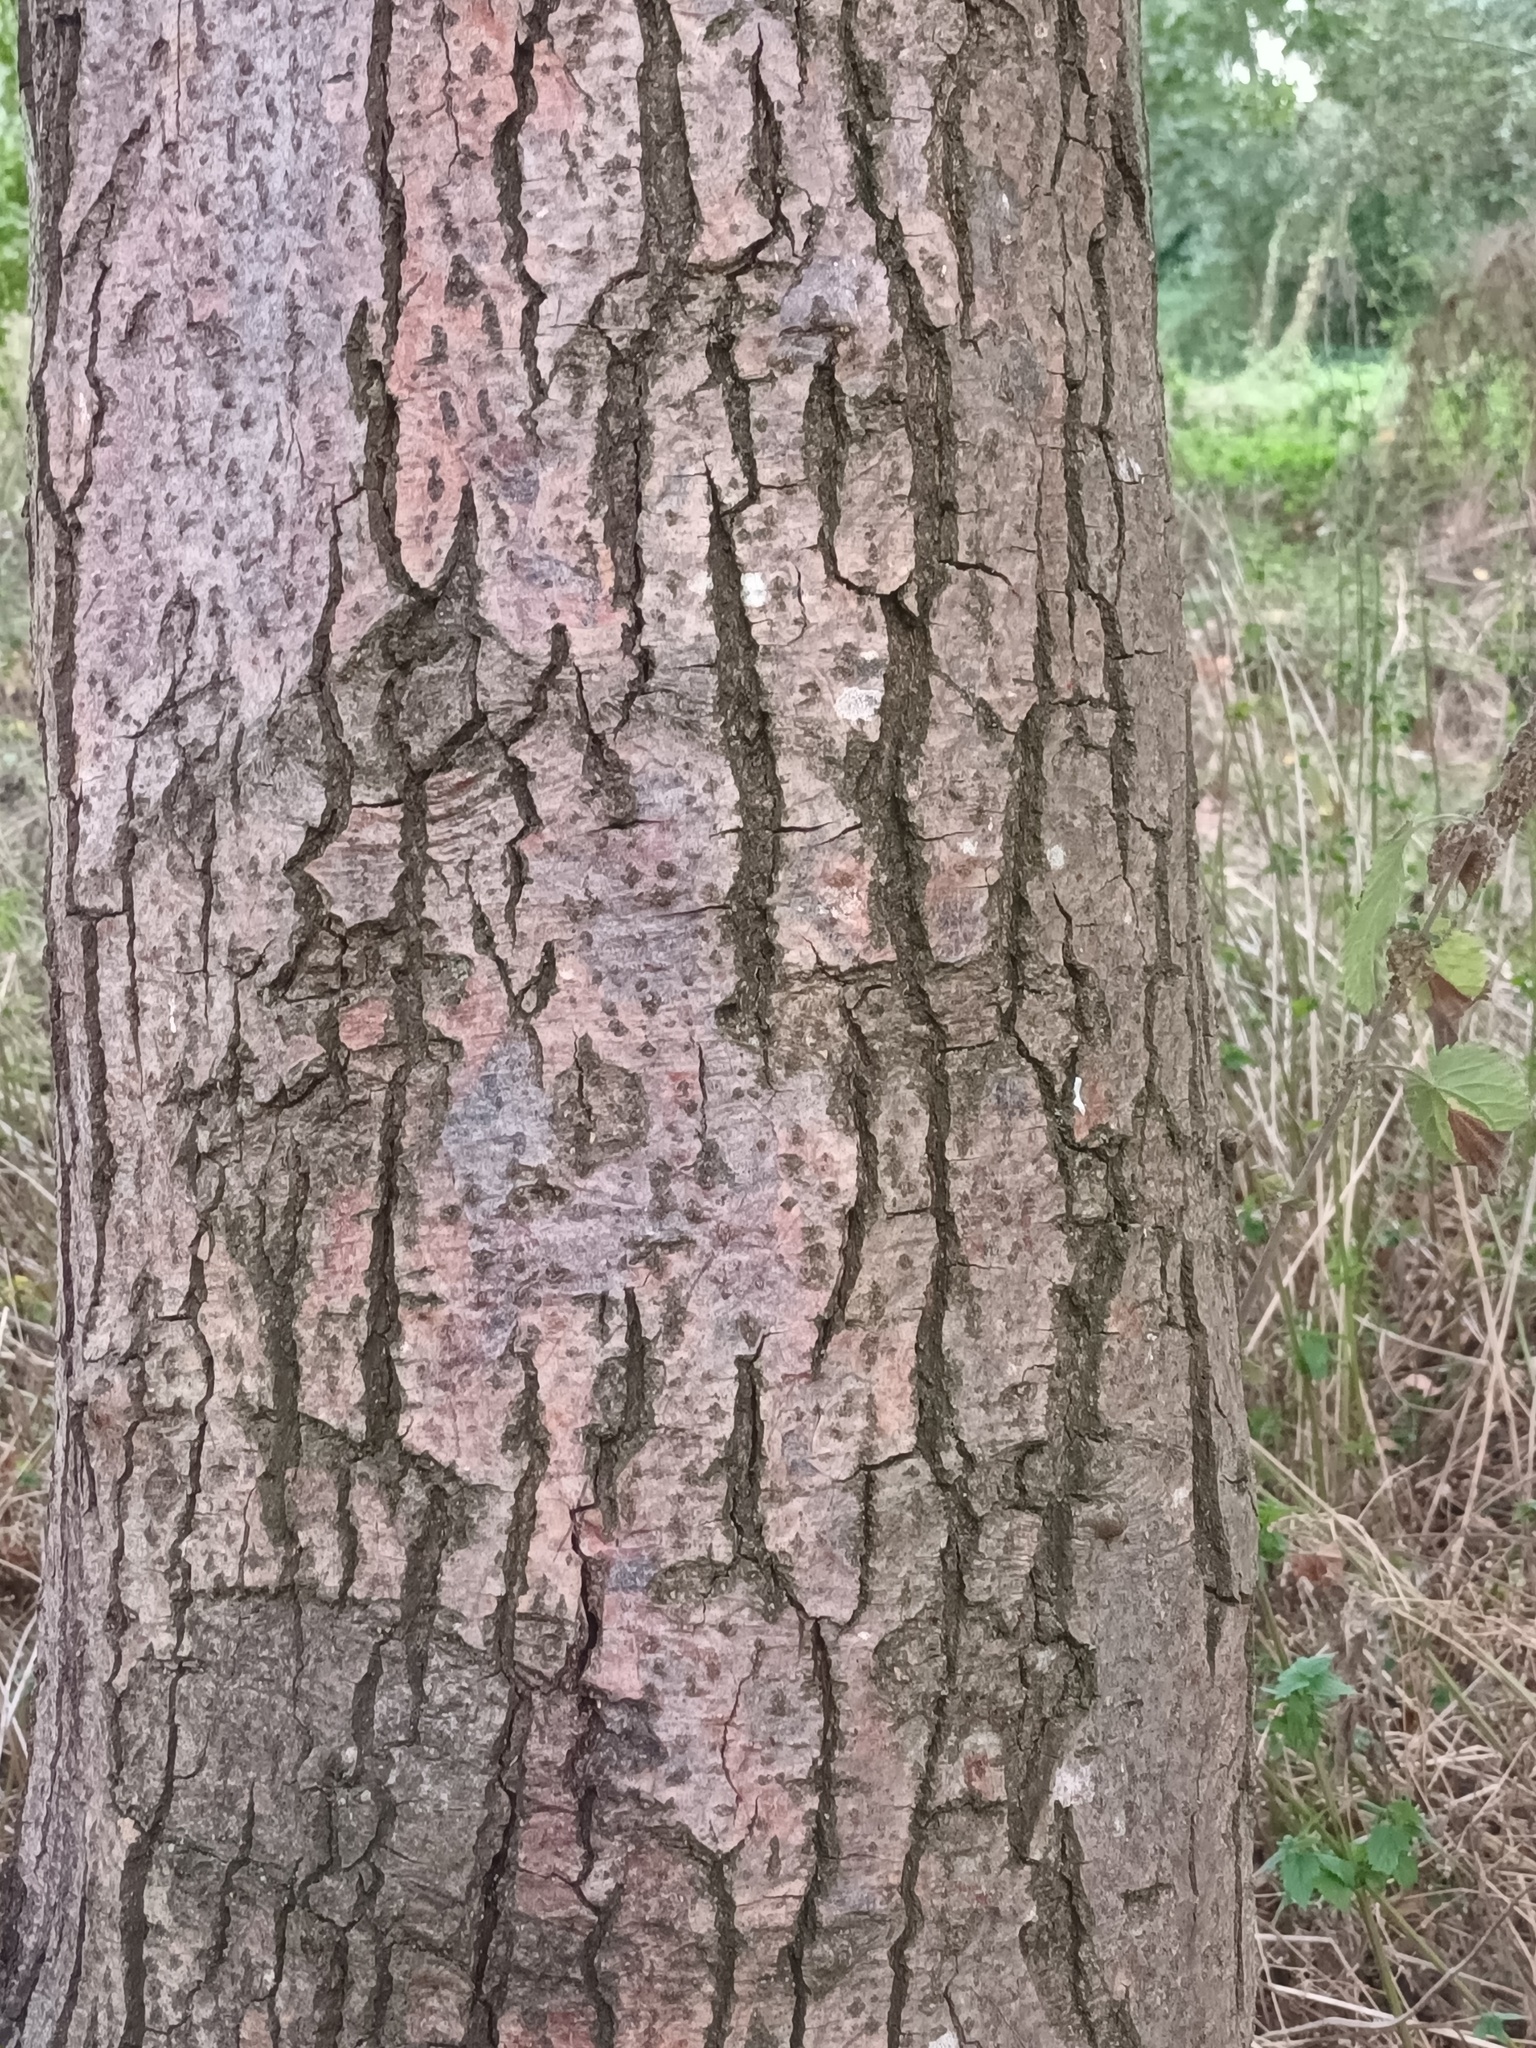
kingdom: Plantae
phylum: Tracheophyta
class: Magnoliopsida
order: Fagales
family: Betulaceae
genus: Alnus
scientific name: Alnus cordata
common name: Italian alder
